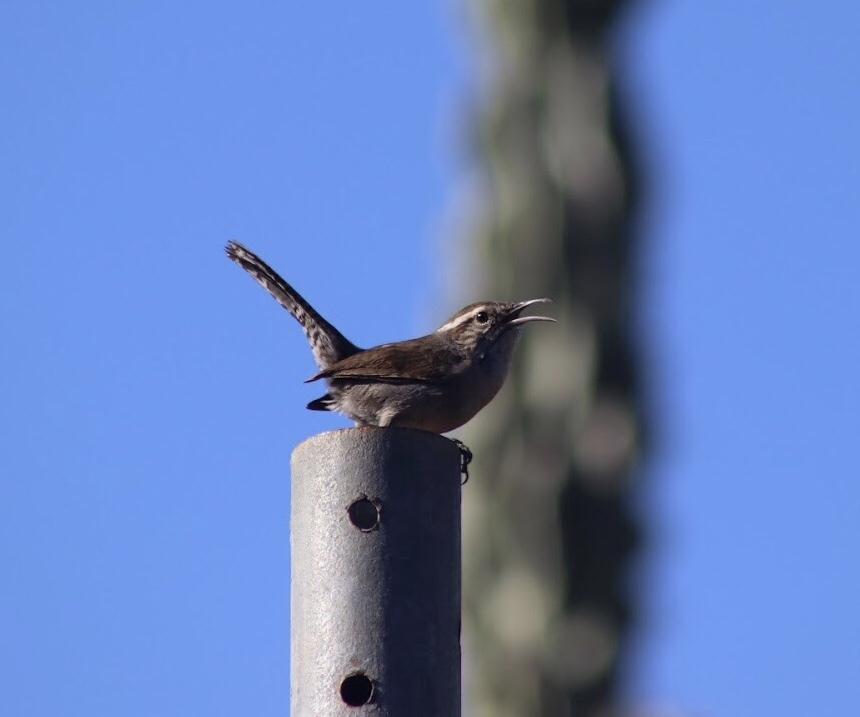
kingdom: Animalia
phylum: Chordata
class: Aves
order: Passeriformes
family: Troglodytidae
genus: Thryomanes
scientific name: Thryomanes bewickii
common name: Bewick's wren
